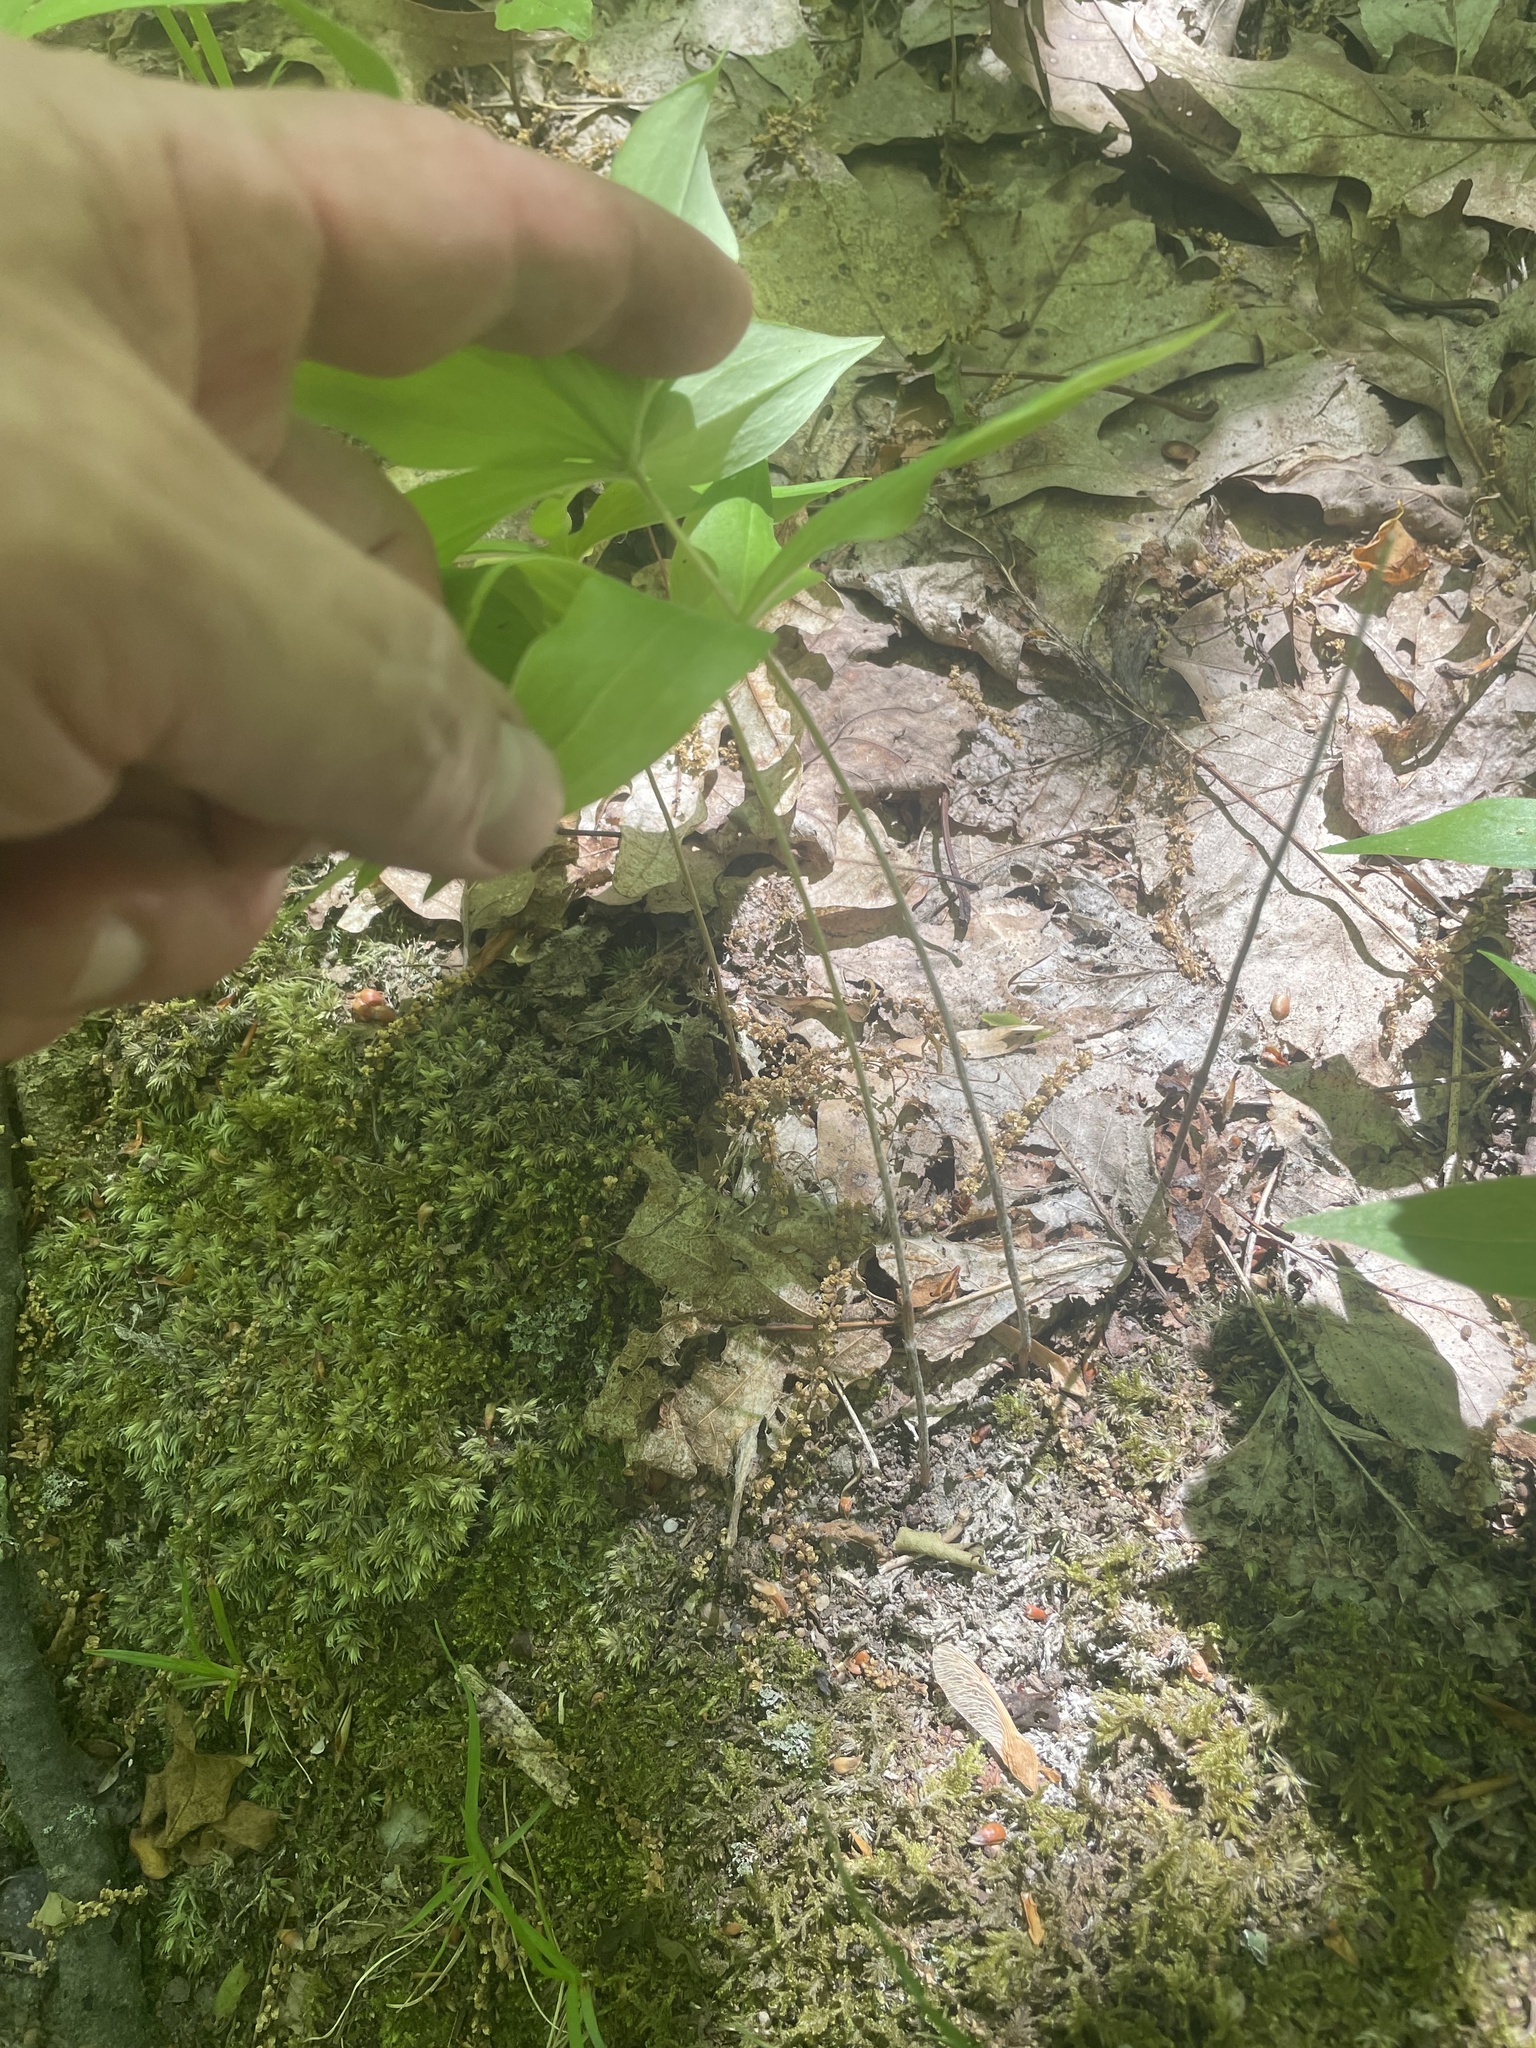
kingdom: Plantae
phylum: Tracheophyta
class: Liliopsida
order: Liliales
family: Liliaceae
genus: Medeola
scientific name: Medeola virginiana
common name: Indian cucumber-root
